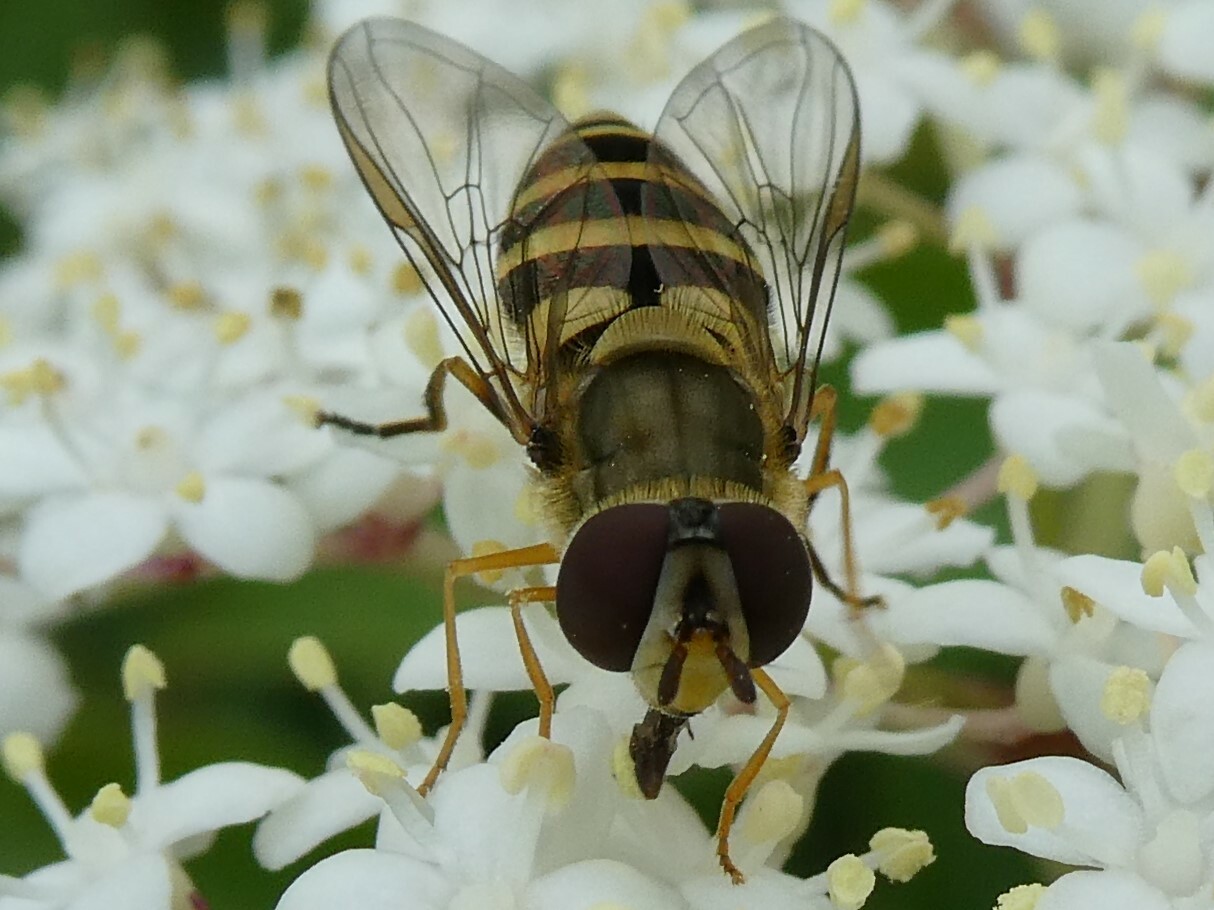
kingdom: Animalia
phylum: Arthropoda
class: Insecta
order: Diptera
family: Syrphidae
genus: Syrphus
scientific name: Syrphus rectus
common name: Yellow-legged flower fly
